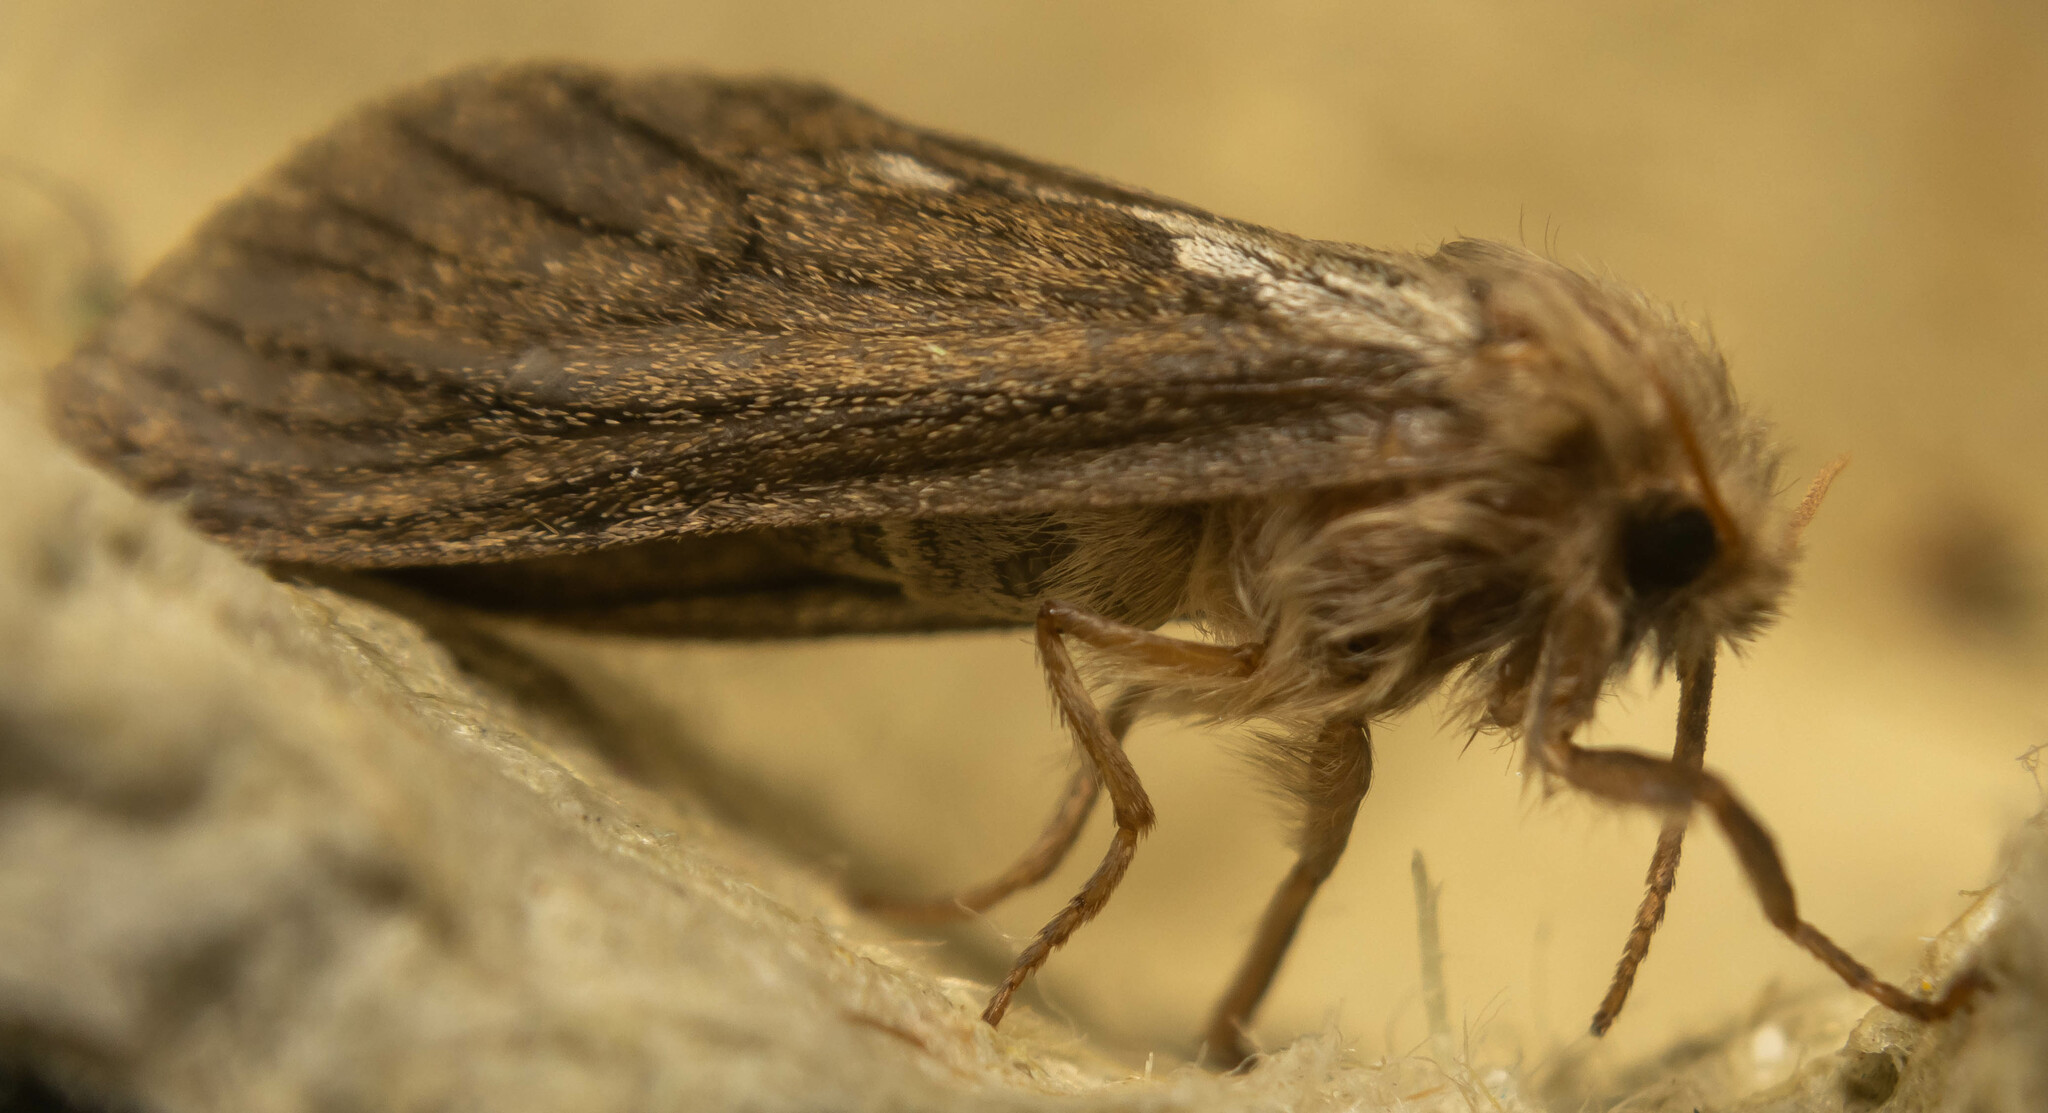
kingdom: Animalia
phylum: Arthropoda
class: Insecta
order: Lepidoptera
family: Hepialidae
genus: Korscheltellus
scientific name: Korscheltellus lupulina
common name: Common swift
